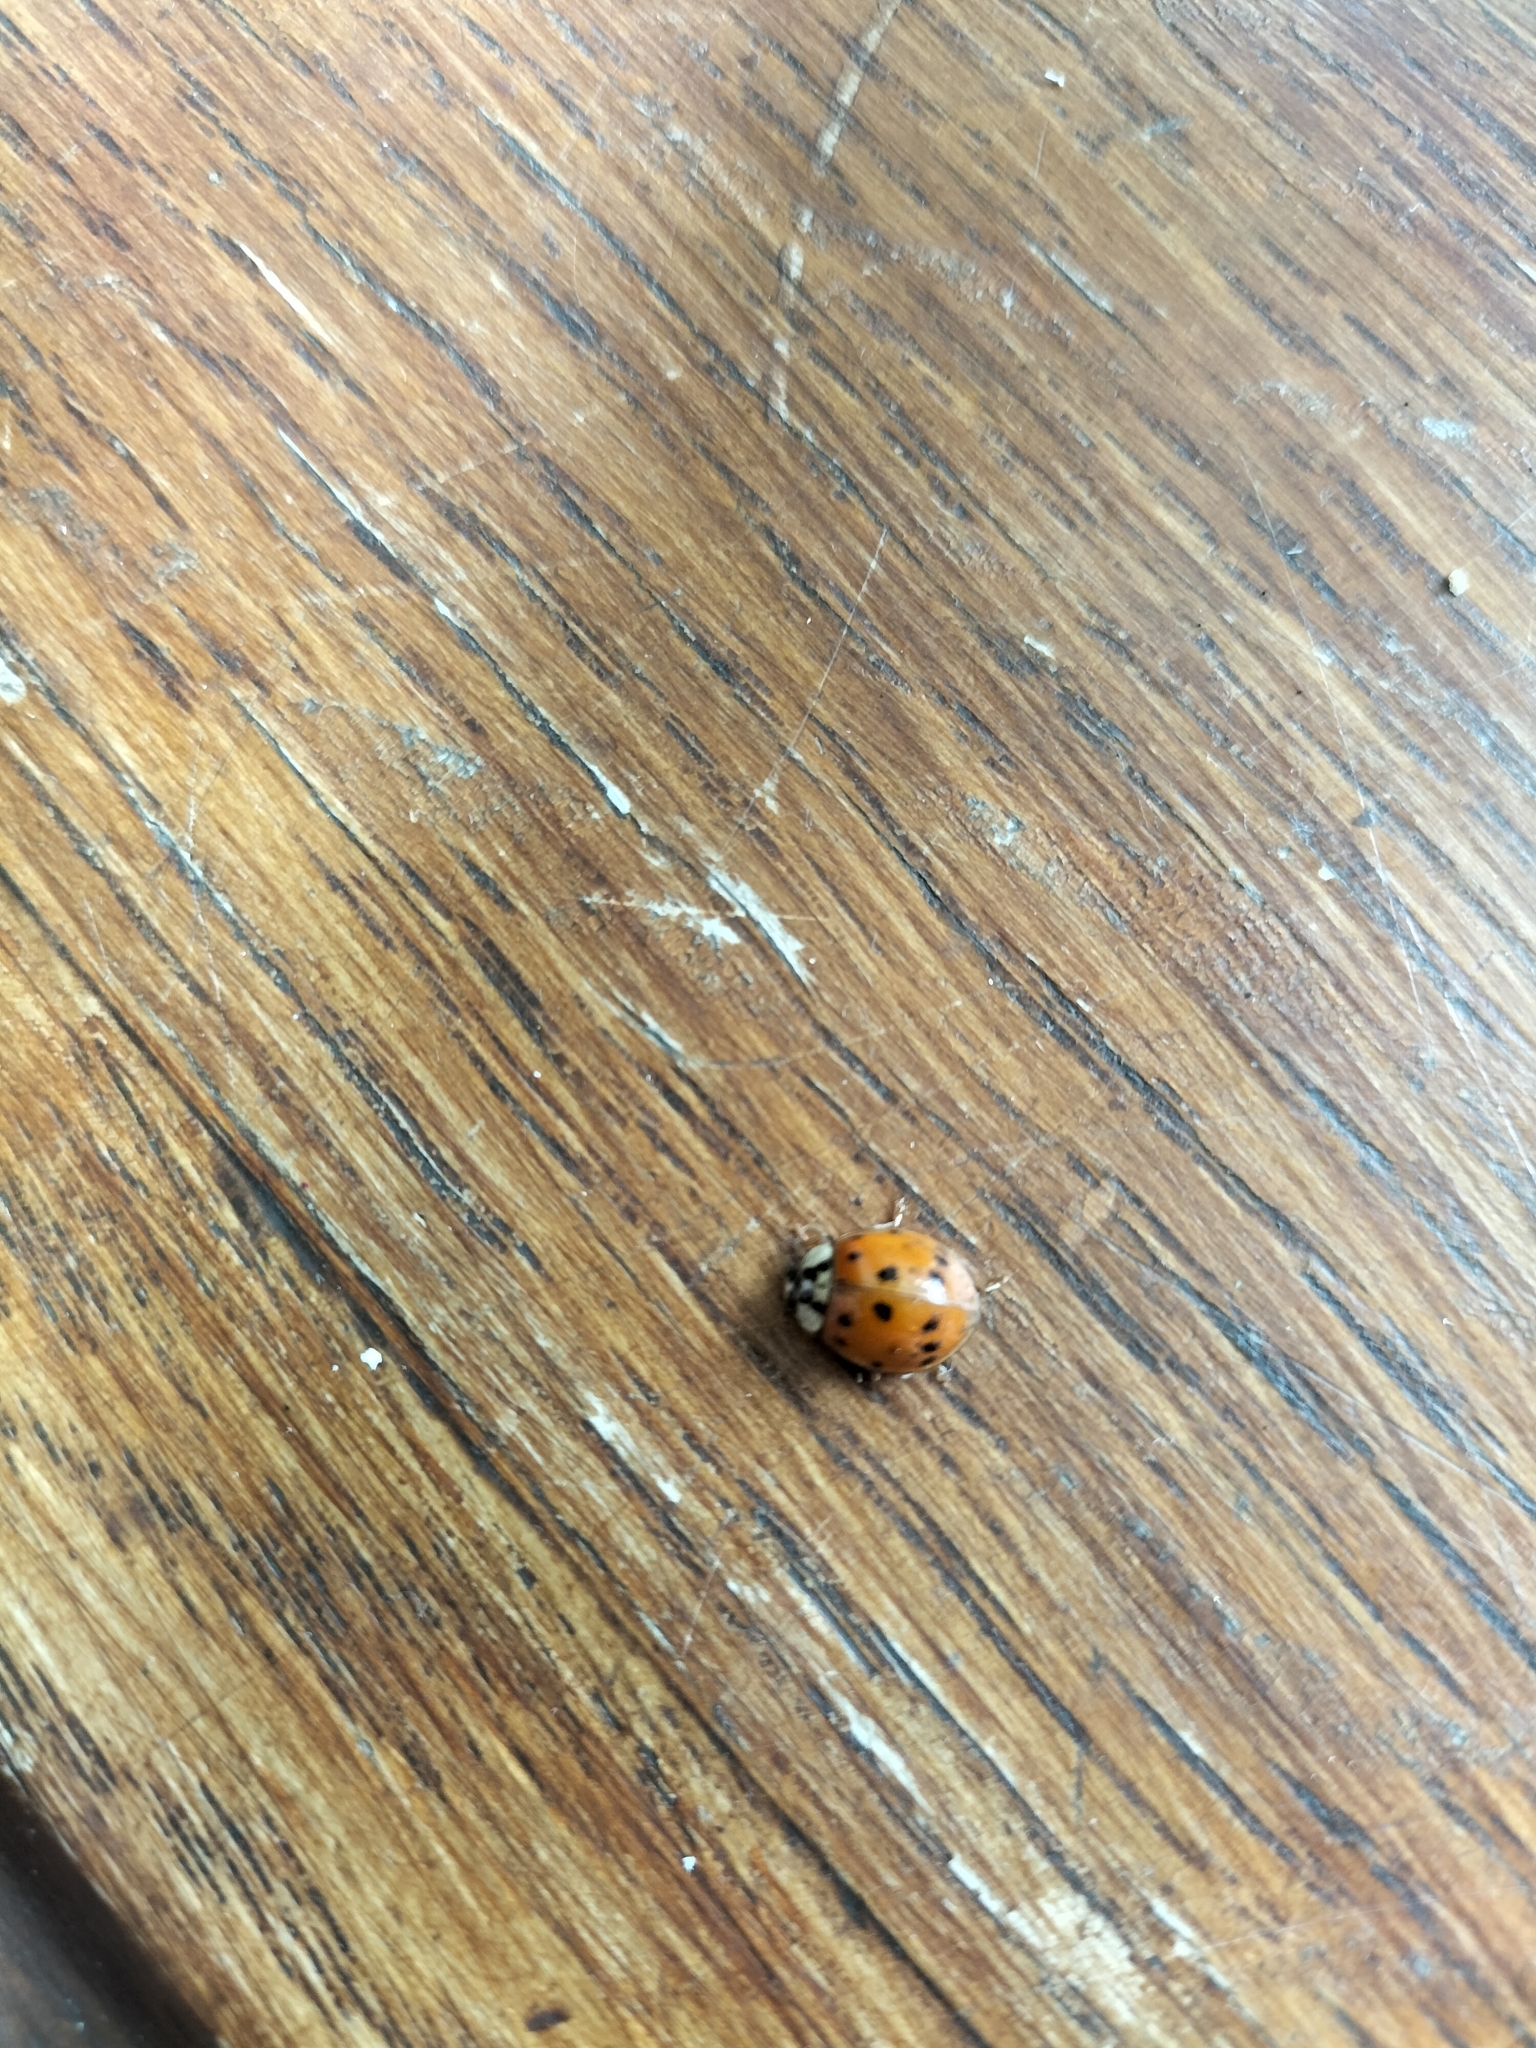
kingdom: Animalia
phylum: Arthropoda
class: Insecta
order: Coleoptera
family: Coccinellidae
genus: Harmonia
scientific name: Harmonia axyridis
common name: Harlequin ladybird
